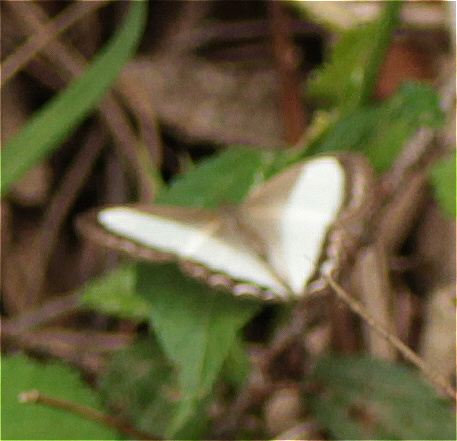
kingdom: Animalia
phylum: Arthropoda
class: Insecta
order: Lepidoptera
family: Nymphalidae
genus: Oressinoma
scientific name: Oressinoma typhla
